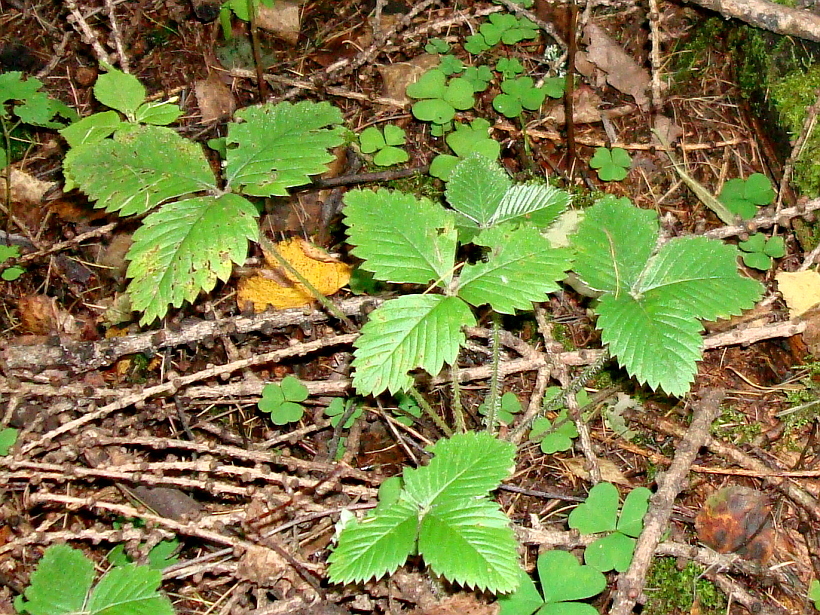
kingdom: Plantae
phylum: Tracheophyta
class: Magnoliopsida
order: Rosales
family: Rosaceae
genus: Fragaria
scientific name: Fragaria vesca
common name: Wild strawberry
